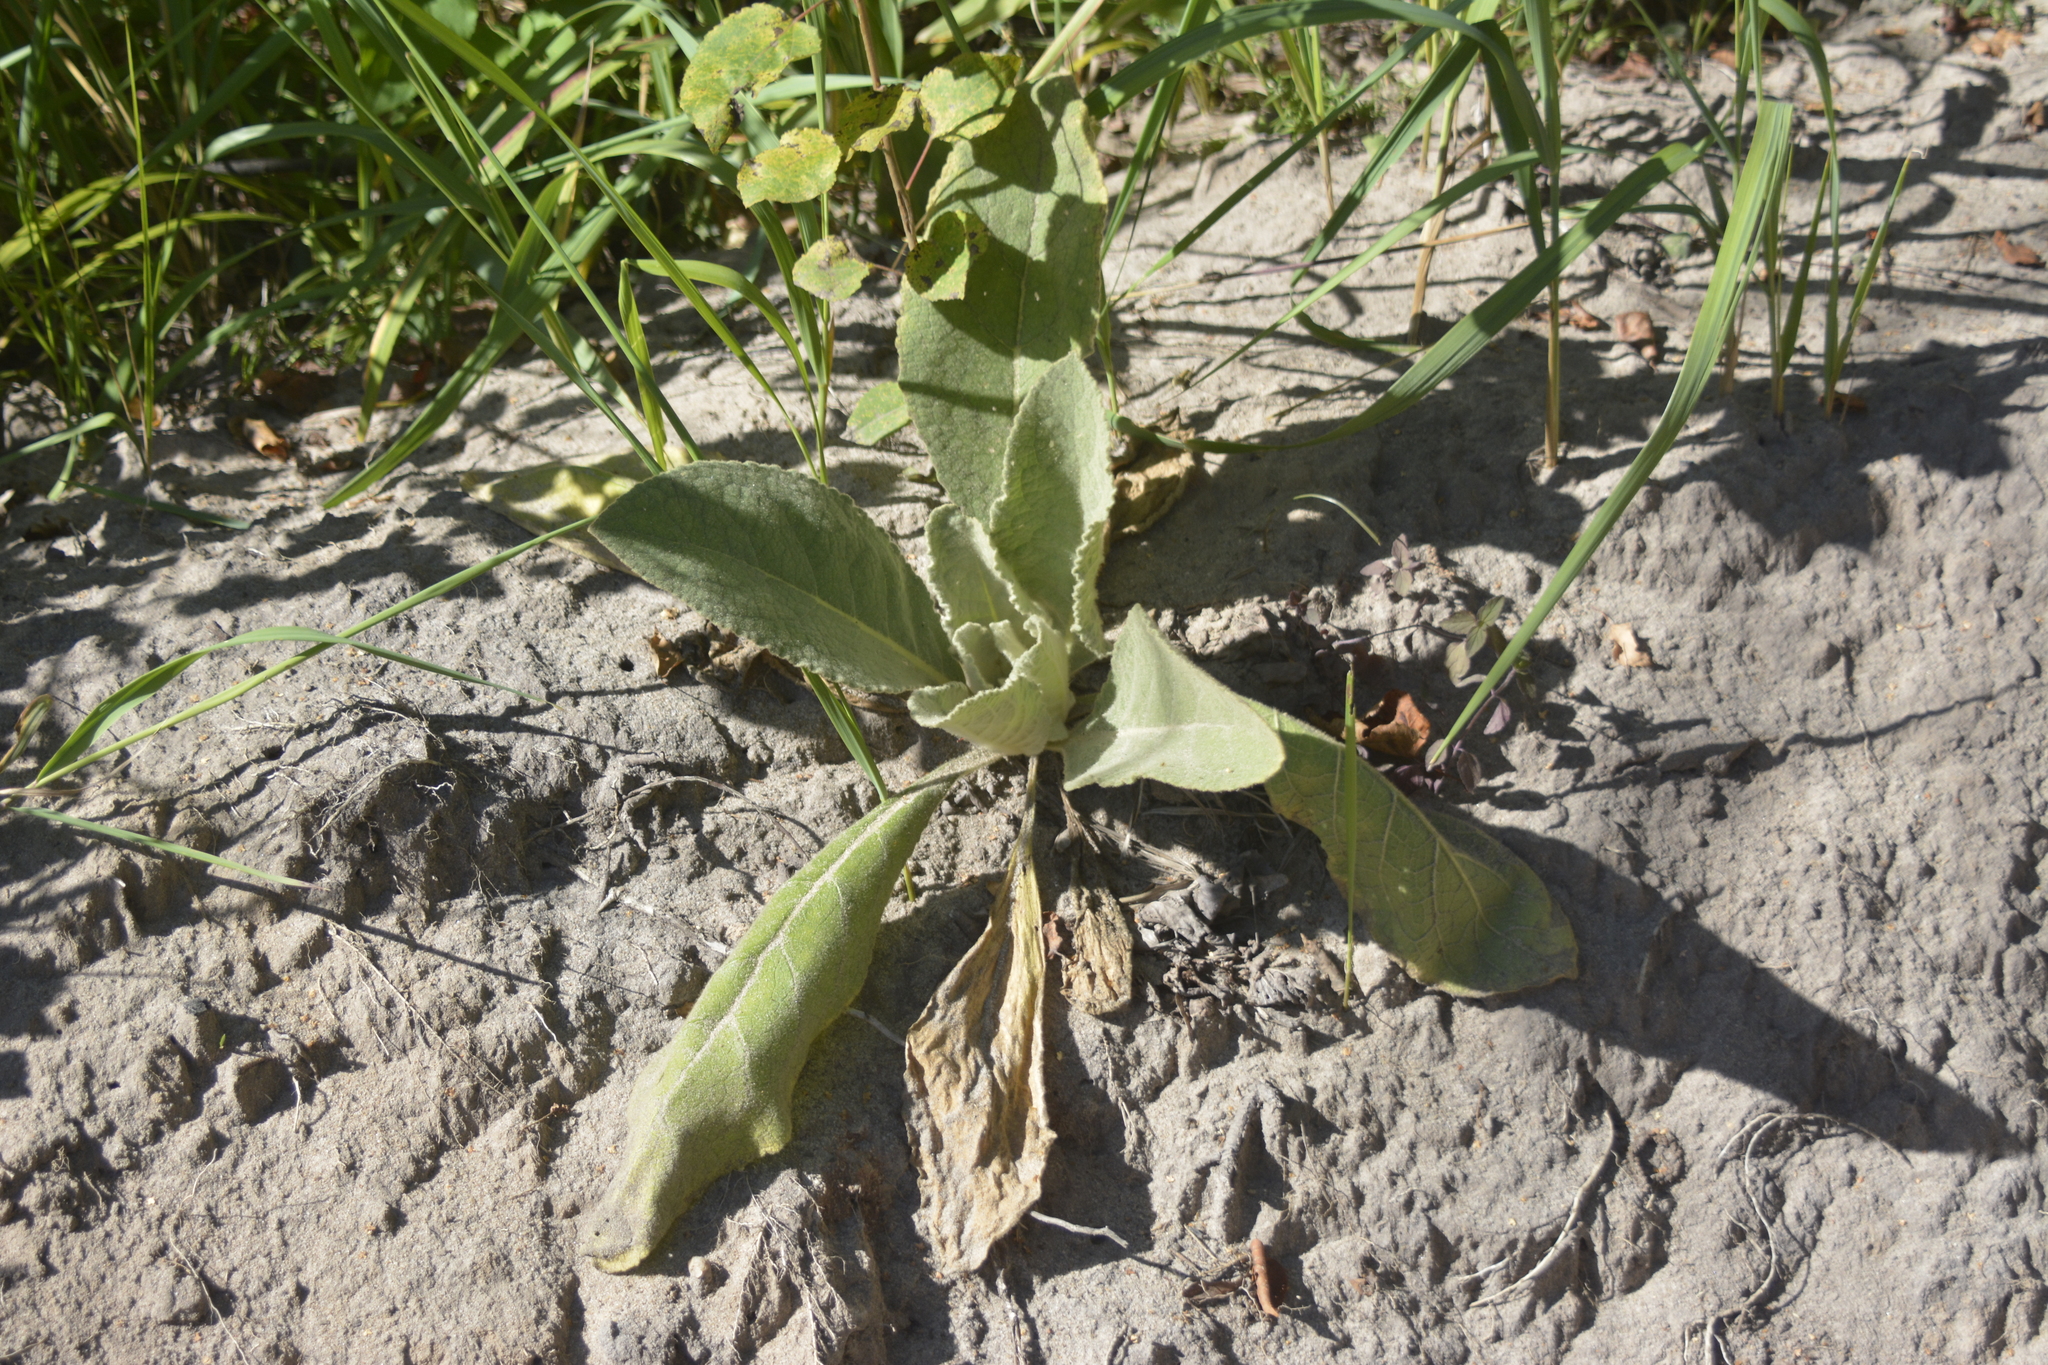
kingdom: Plantae
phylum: Tracheophyta
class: Magnoliopsida
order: Lamiales
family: Scrophulariaceae
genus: Verbascum
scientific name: Verbascum thapsus
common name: Common mullein
